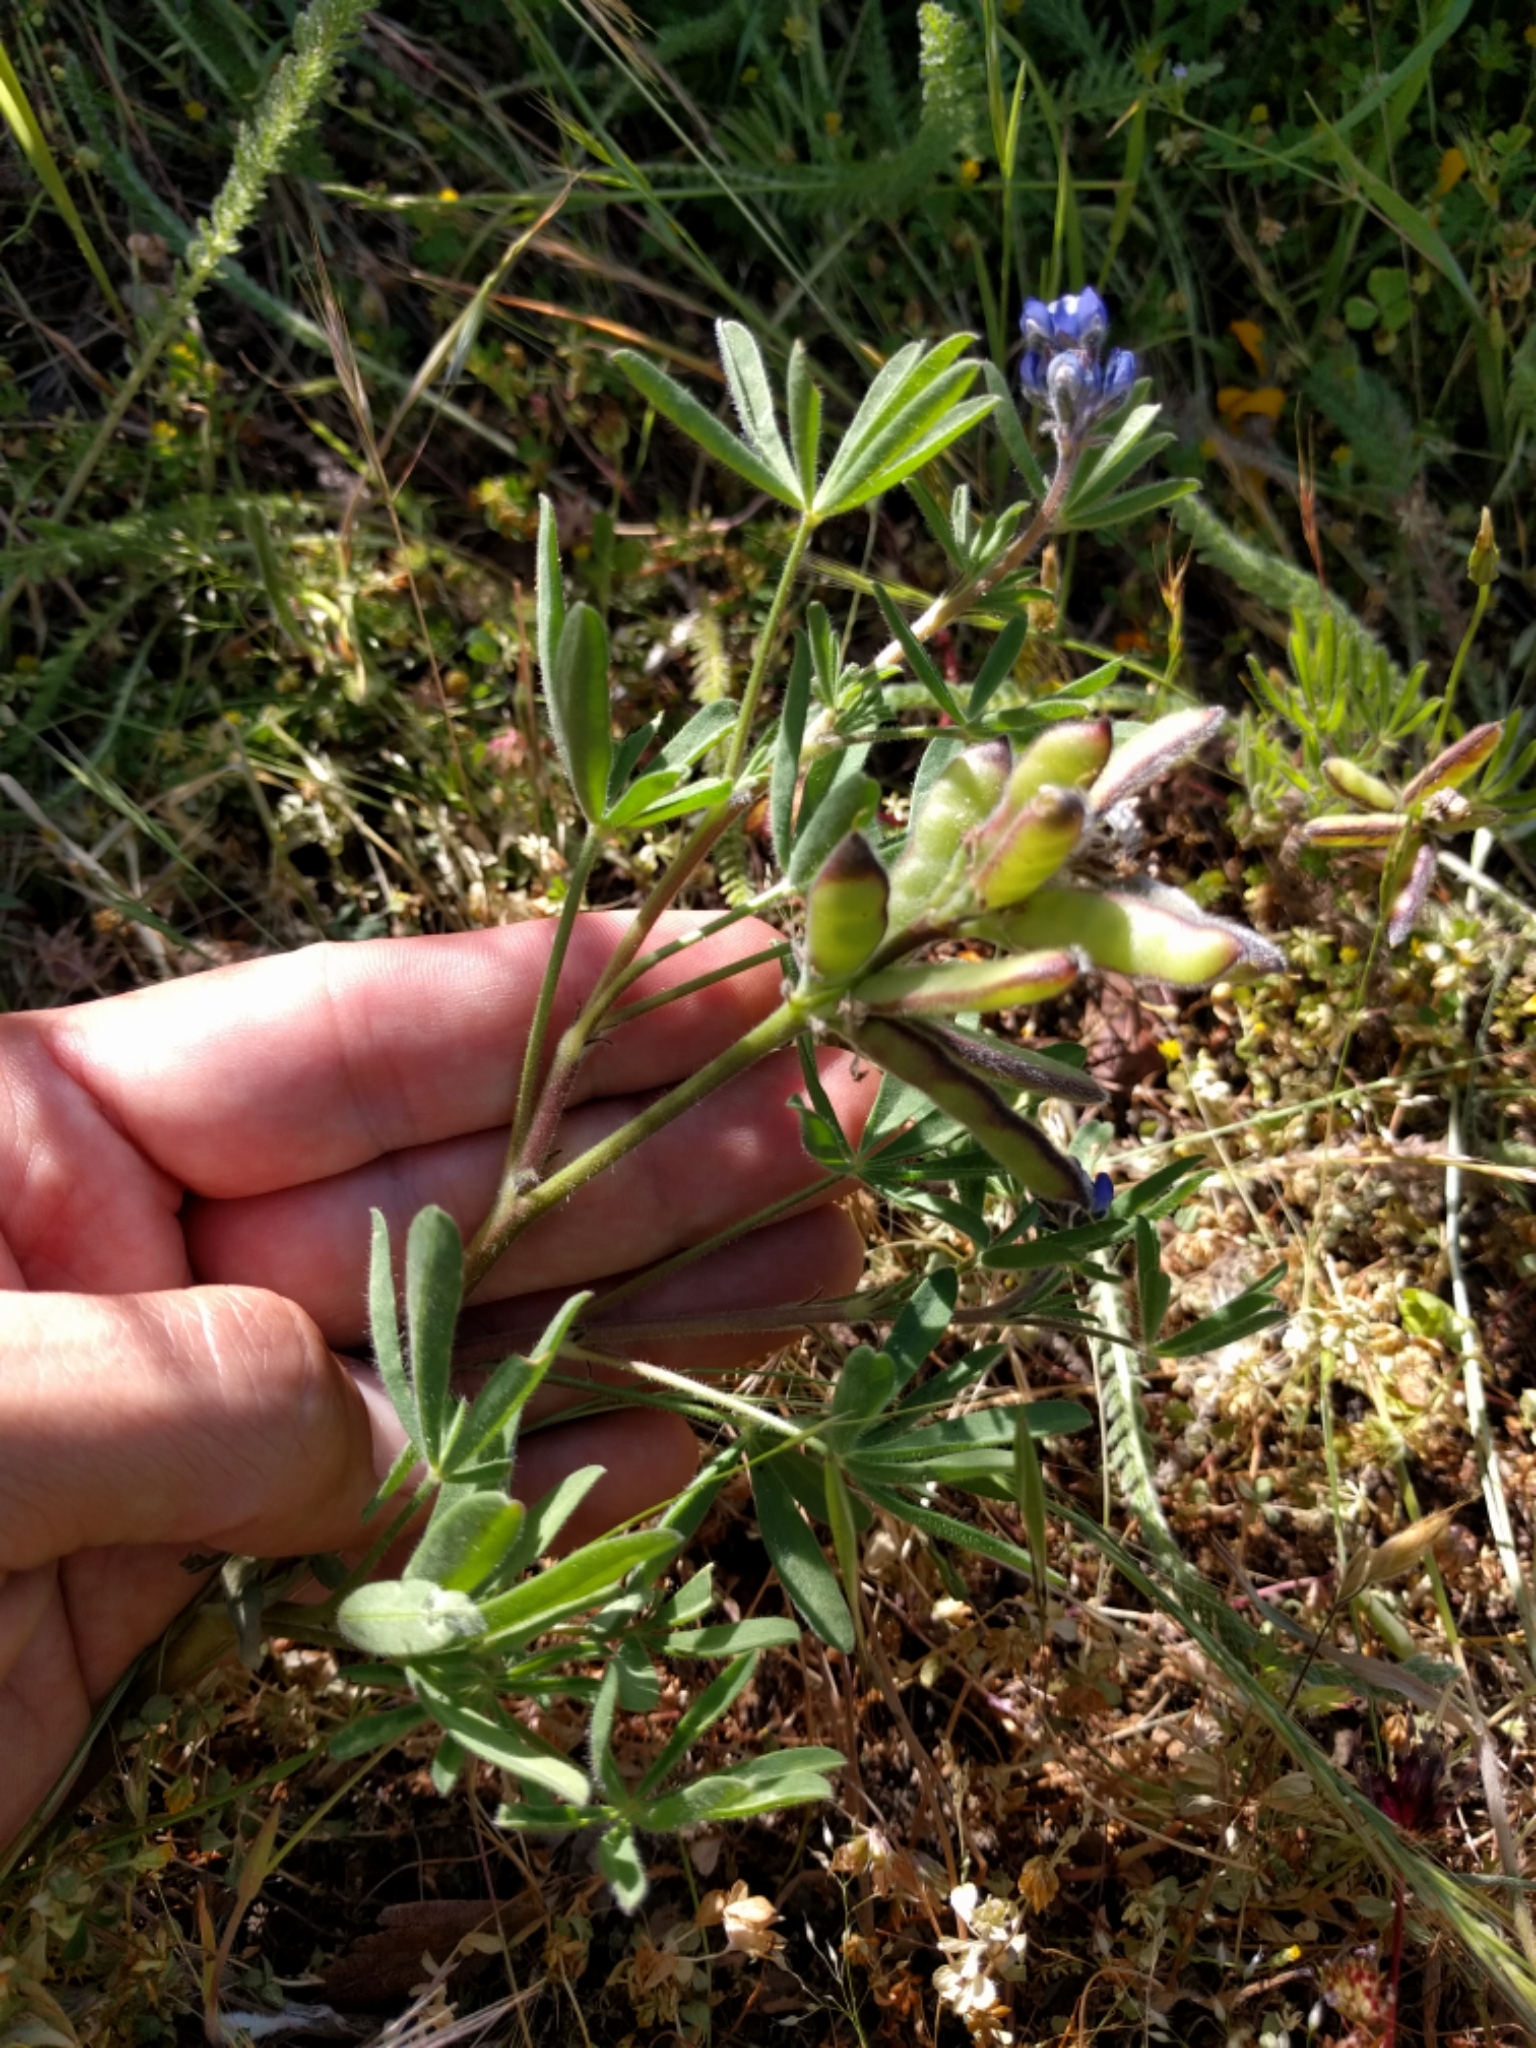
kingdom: Plantae
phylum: Tracheophyta
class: Magnoliopsida
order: Fabales
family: Fabaceae
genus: Lupinus
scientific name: Lupinus bicolor
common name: Miniature lupine
